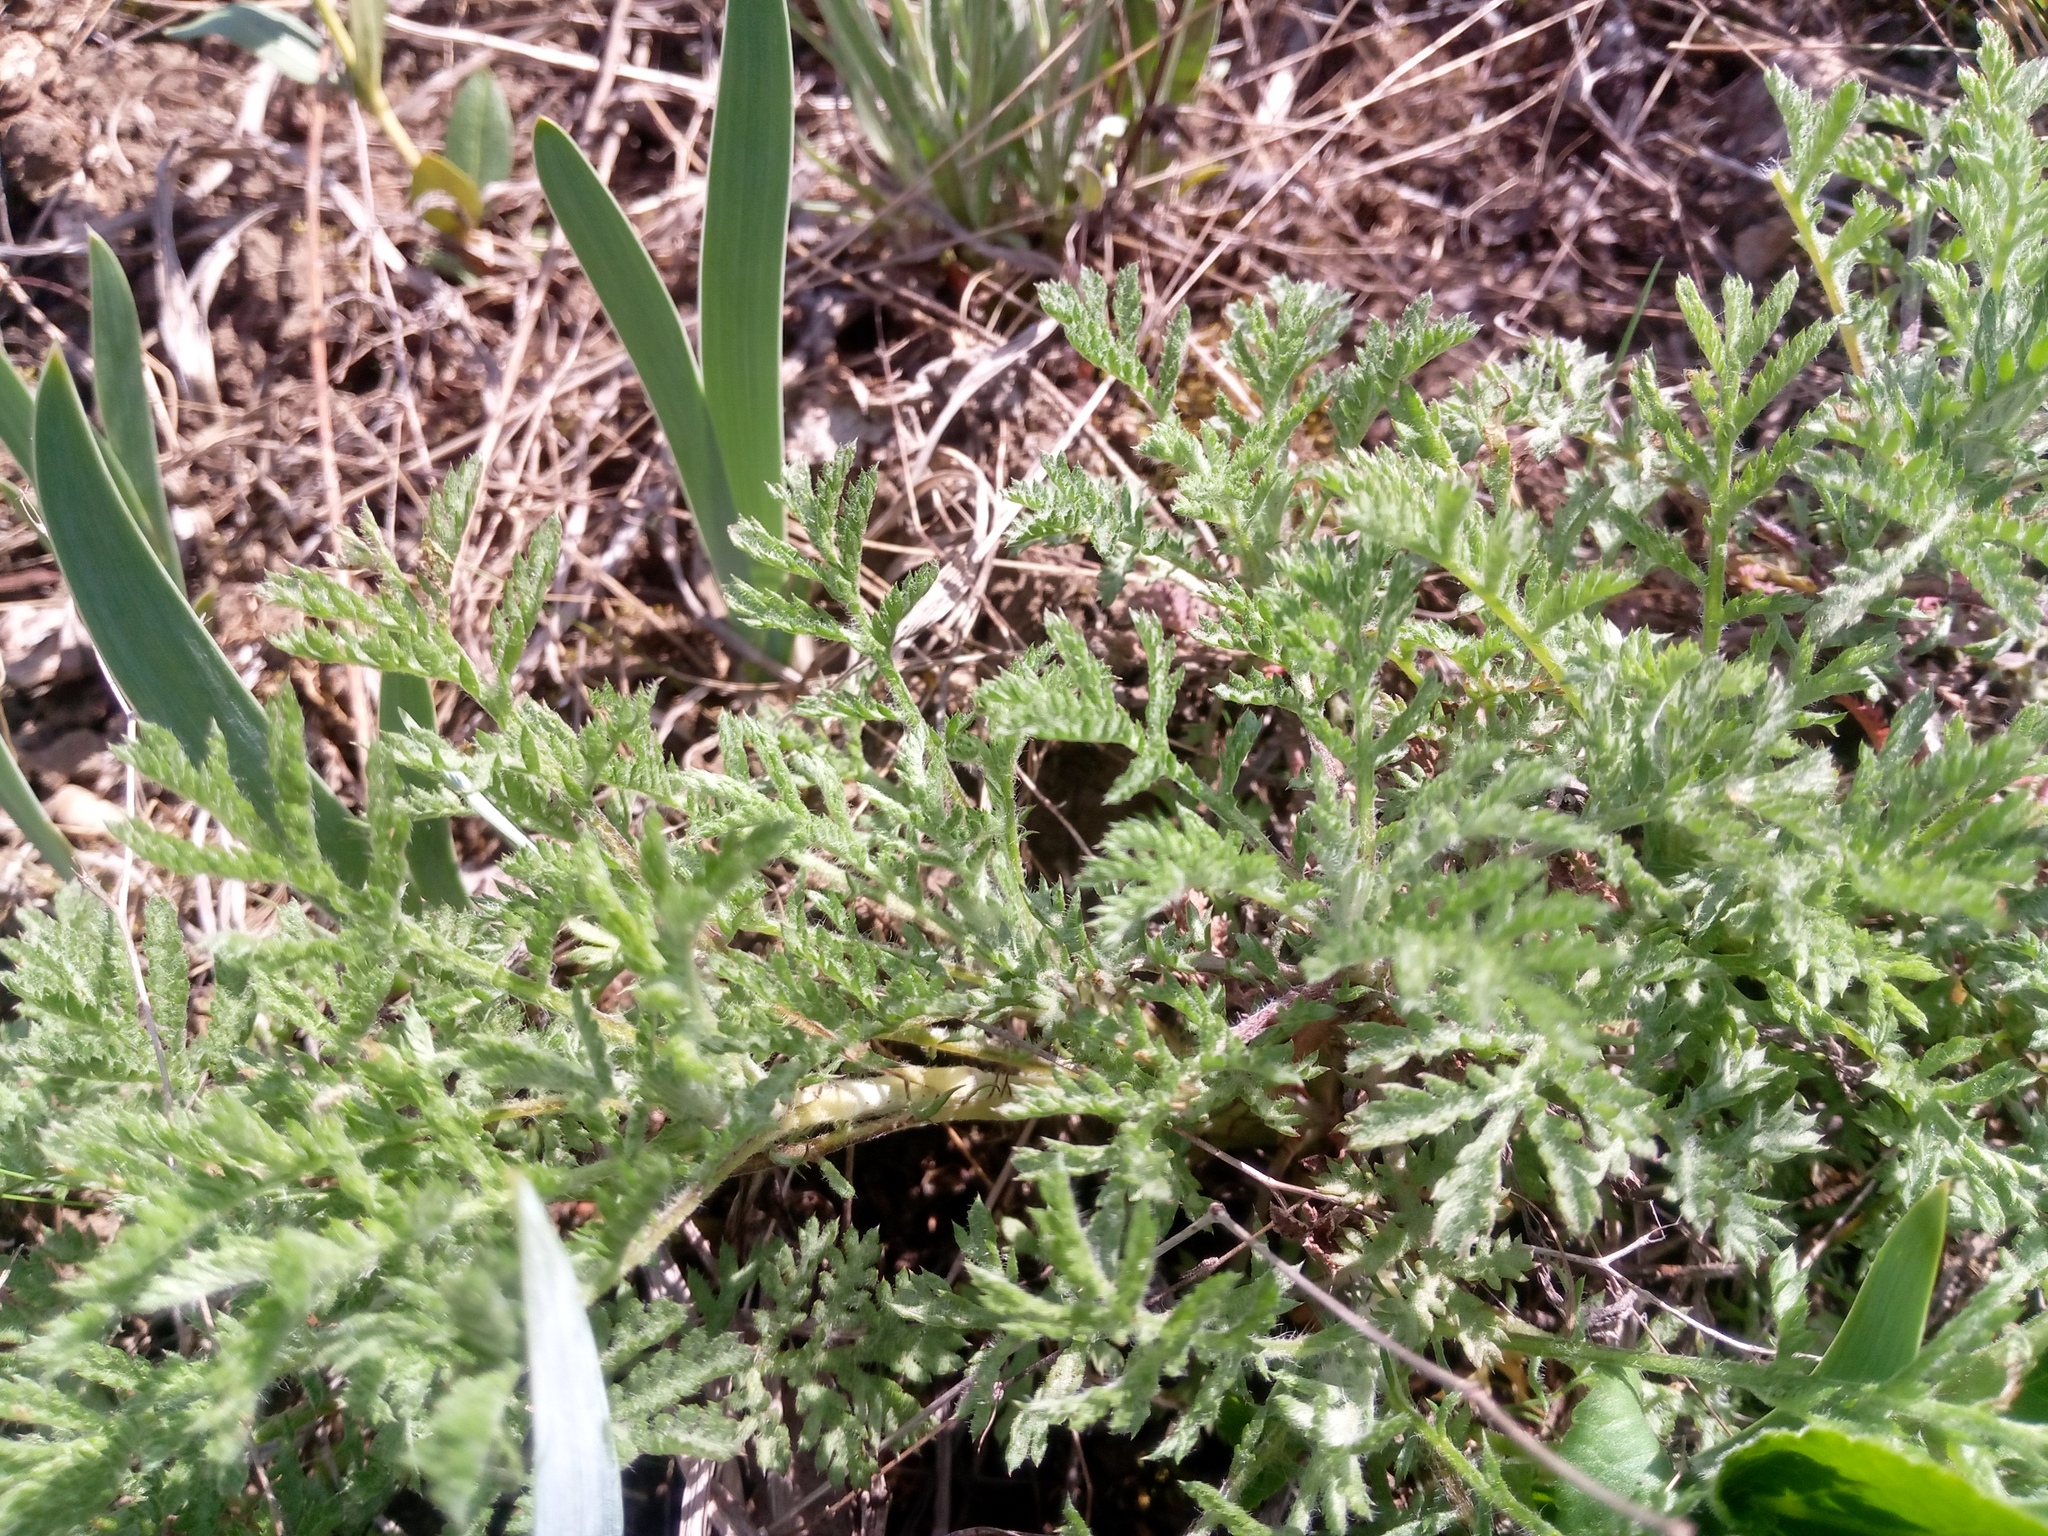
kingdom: Plantae
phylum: Tracheophyta
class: Magnoliopsida
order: Asterales
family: Asteraceae
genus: Cota
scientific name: Cota tinctoria
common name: Golden chamomile
